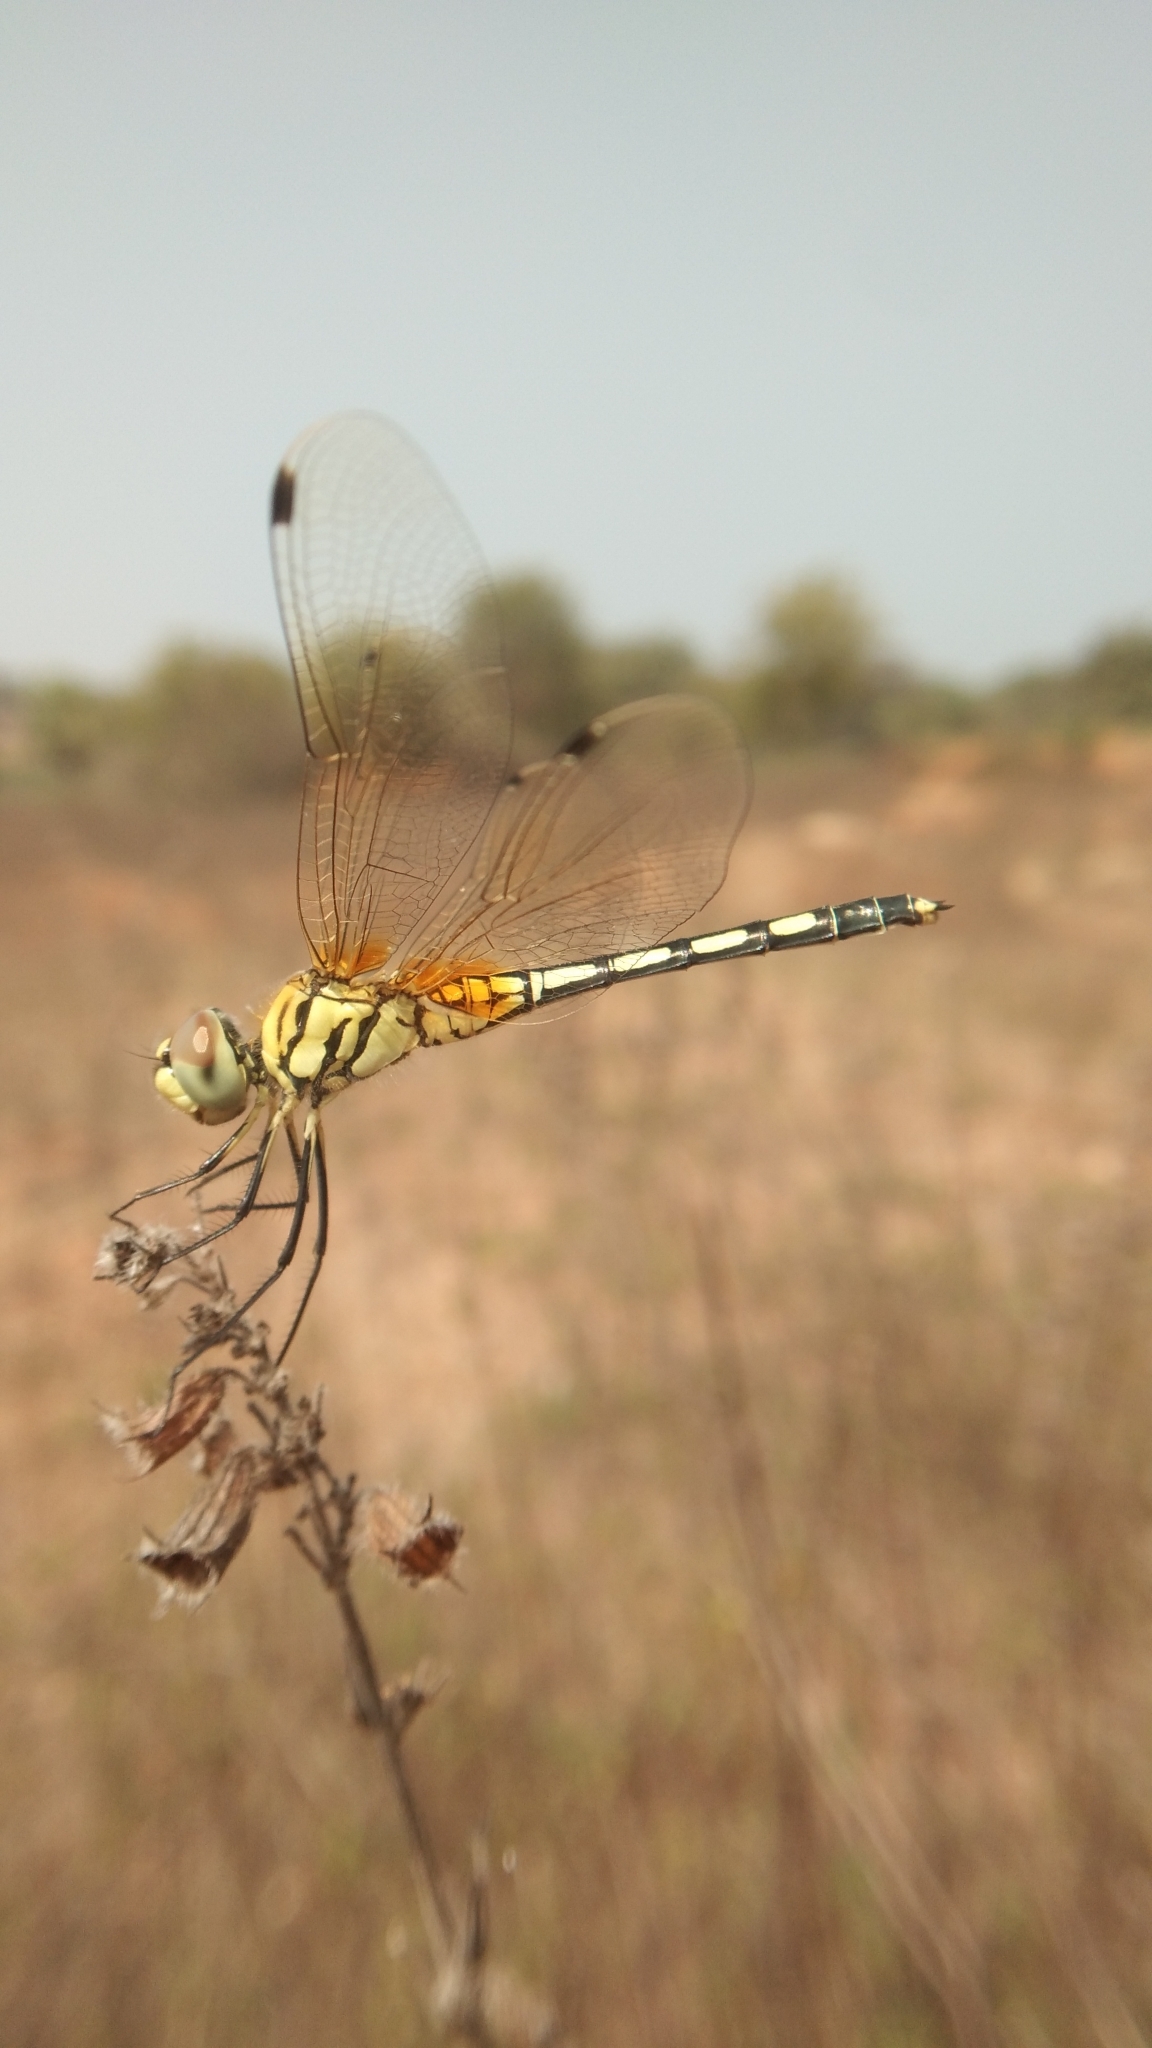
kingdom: Animalia
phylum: Arthropoda
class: Insecta
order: Odonata
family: Libellulidae
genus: Trithemis
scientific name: Trithemis pallidinervis
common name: Dancing dropwing
